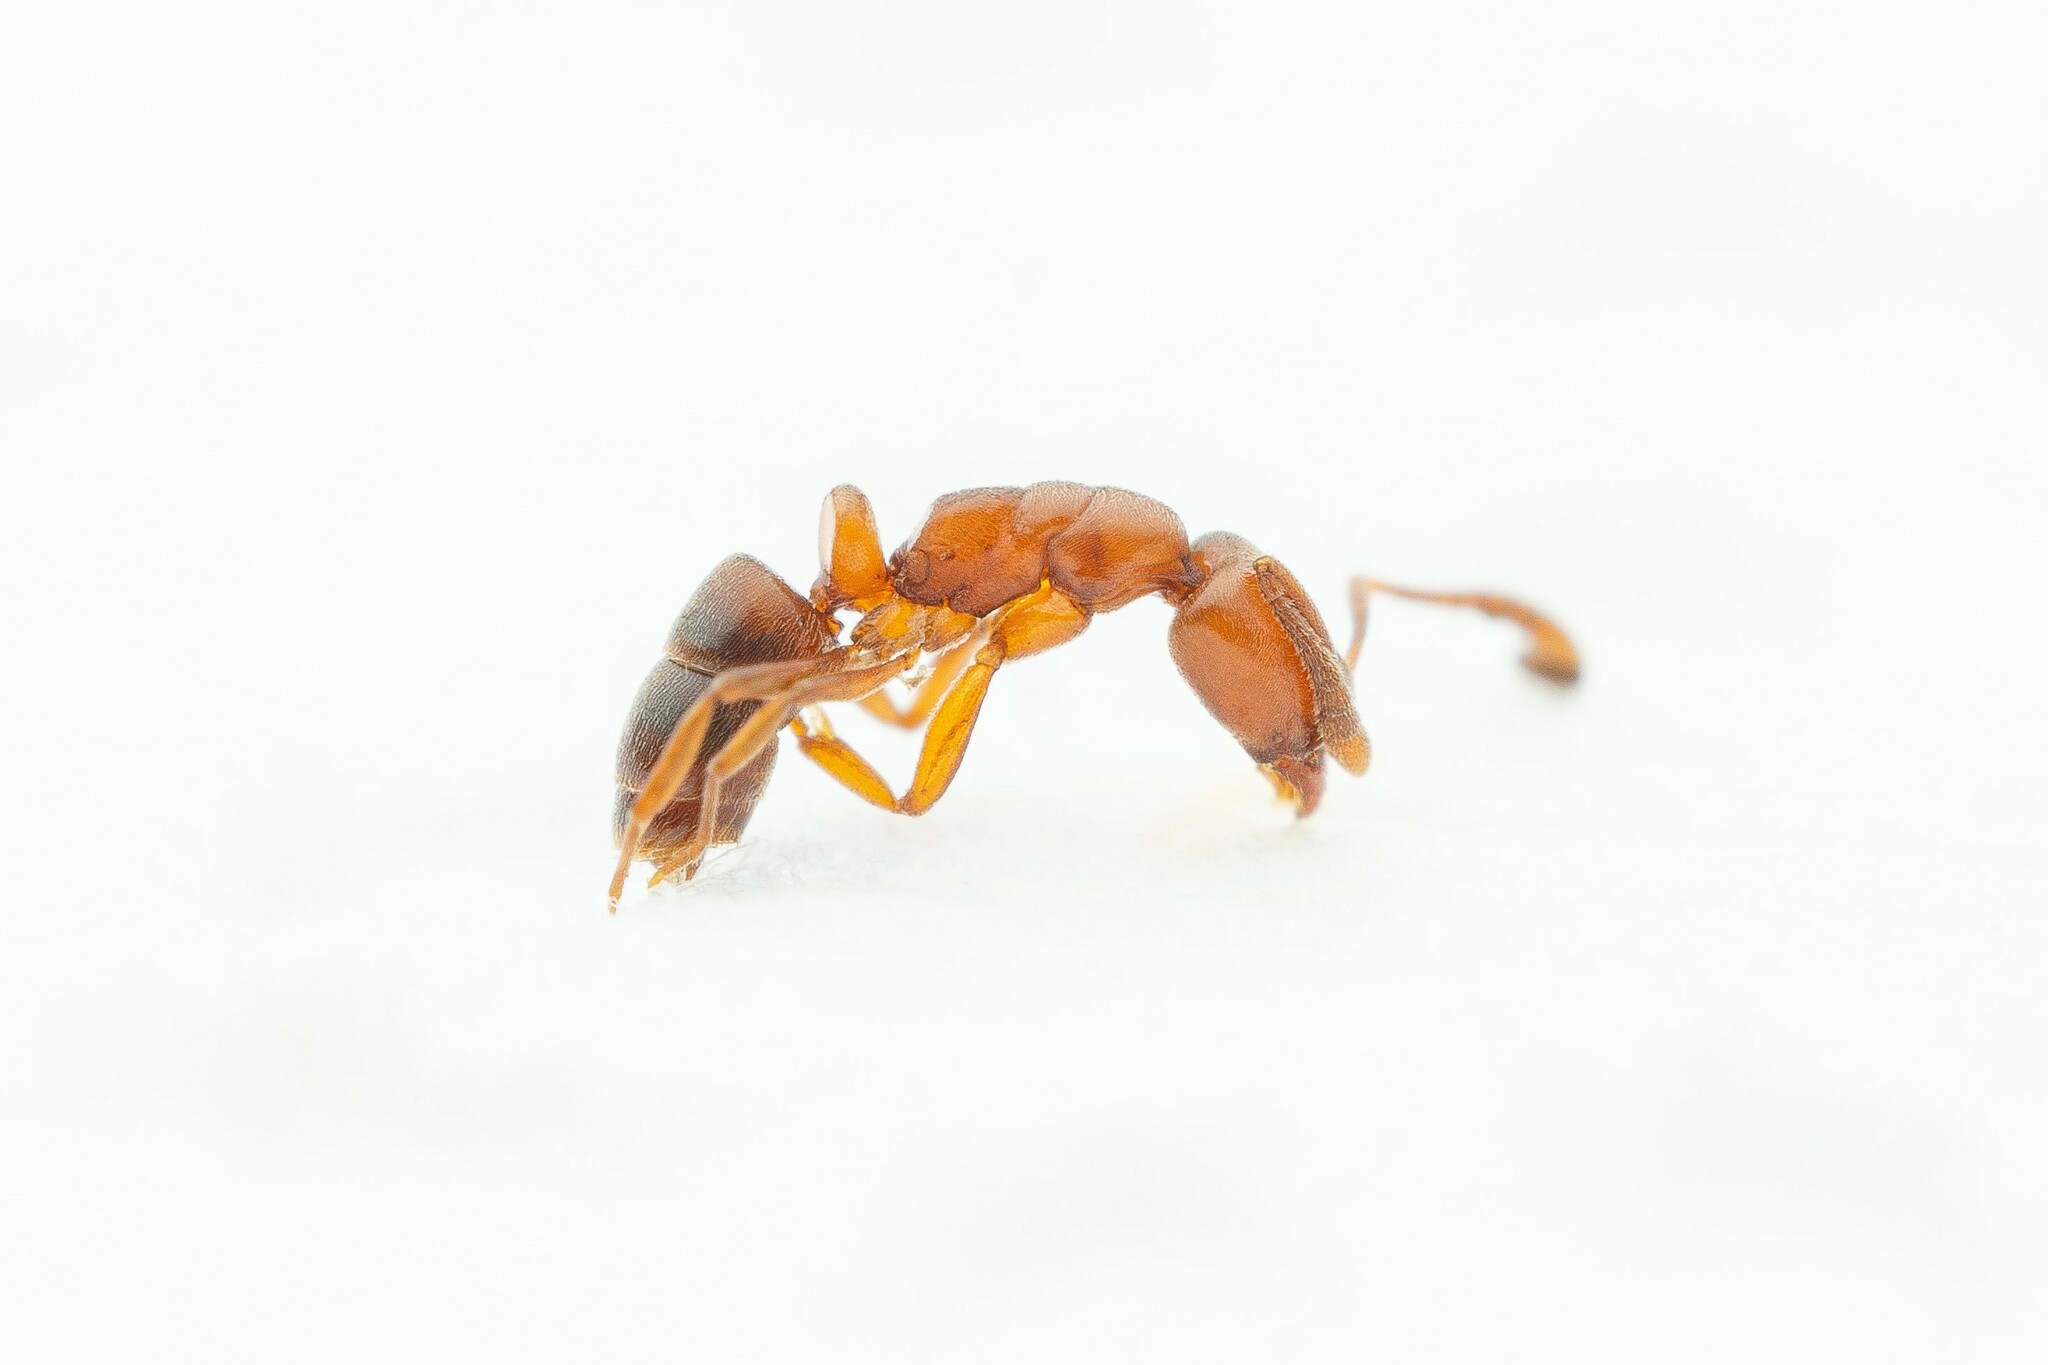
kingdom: Animalia
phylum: Arthropoda
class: Insecta
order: Hymenoptera
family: Formicidae
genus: Hypoponera
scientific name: Hypoponera opacior
